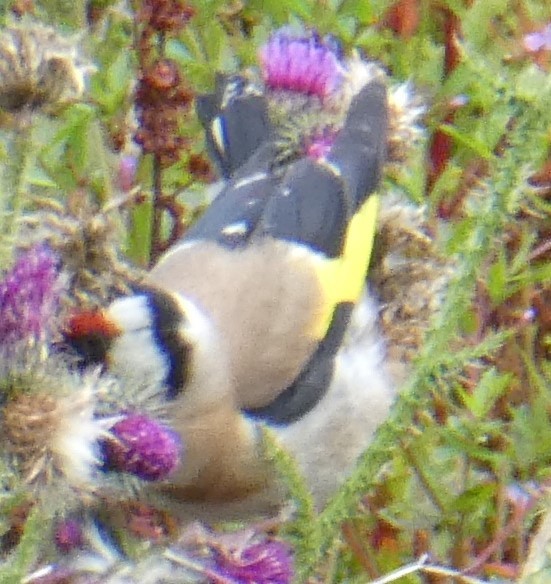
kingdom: Animalia
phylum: Chordata
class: Aves
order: Passeriformes
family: Fringillidae
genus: Carduelis
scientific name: Carduelis carduelis
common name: European goldfinch
